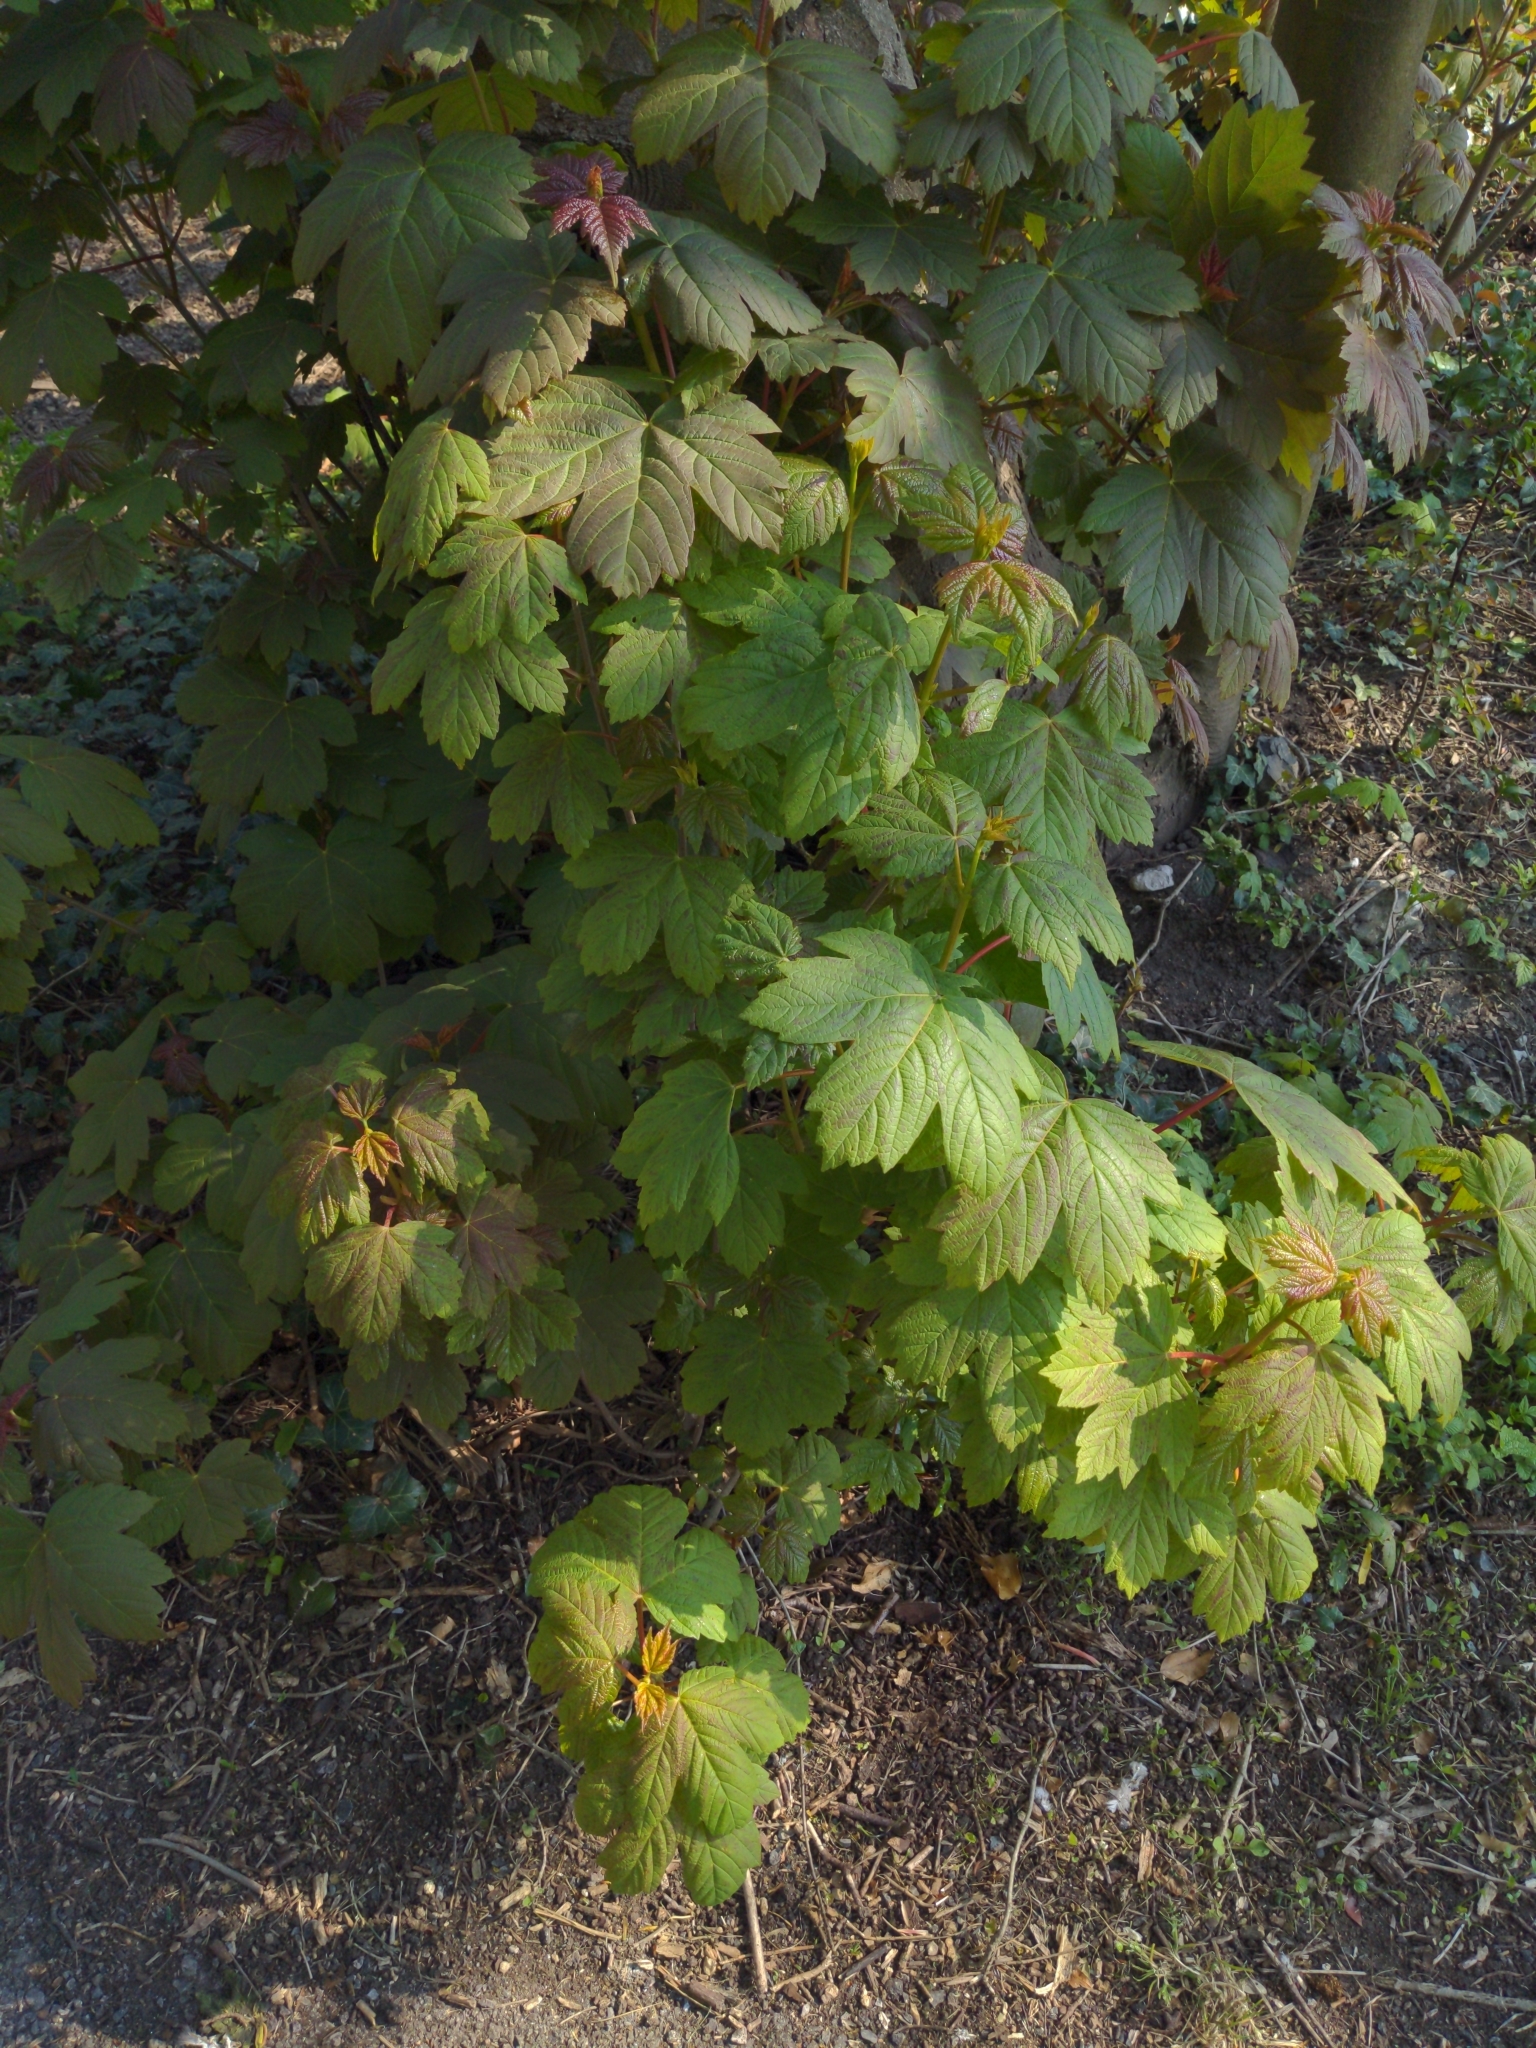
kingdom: Plantae
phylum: Tracheophyta
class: Magnoliopsida
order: Sapindales
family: Sapindaceae
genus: Acer
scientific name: Acer pseudoplatanus
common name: Sycamore
